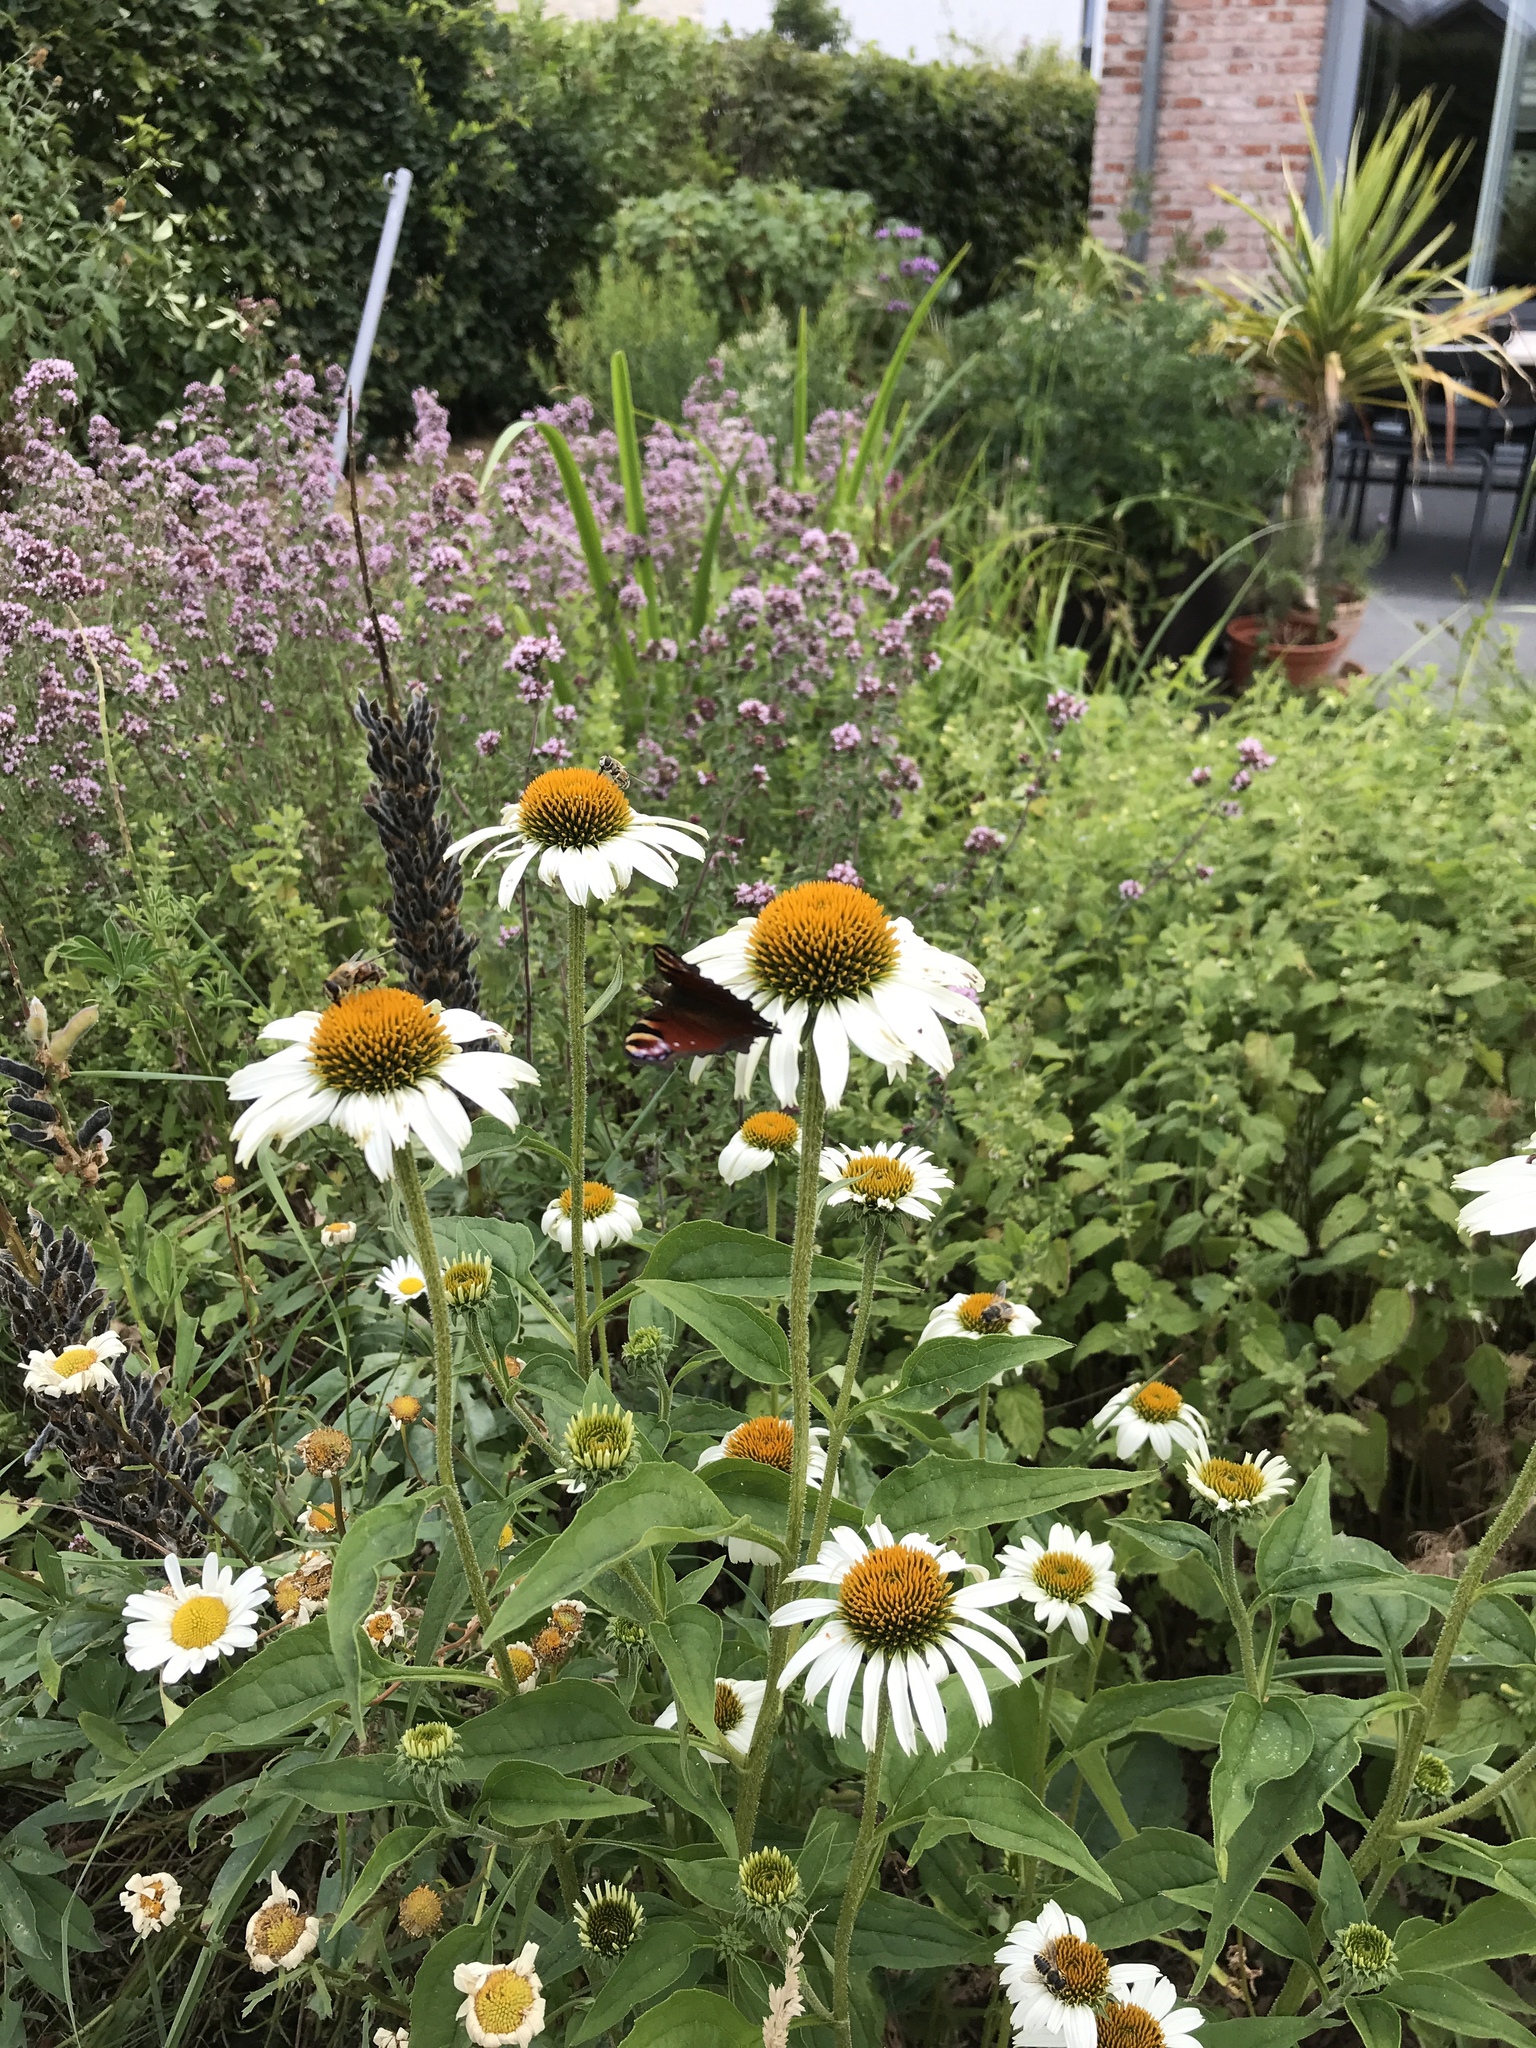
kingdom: Animalia
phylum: Arthropoda
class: Insecta
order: Lepidoptera
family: Nymphalidae
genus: Aglais
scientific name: Aglais io
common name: Peacock
